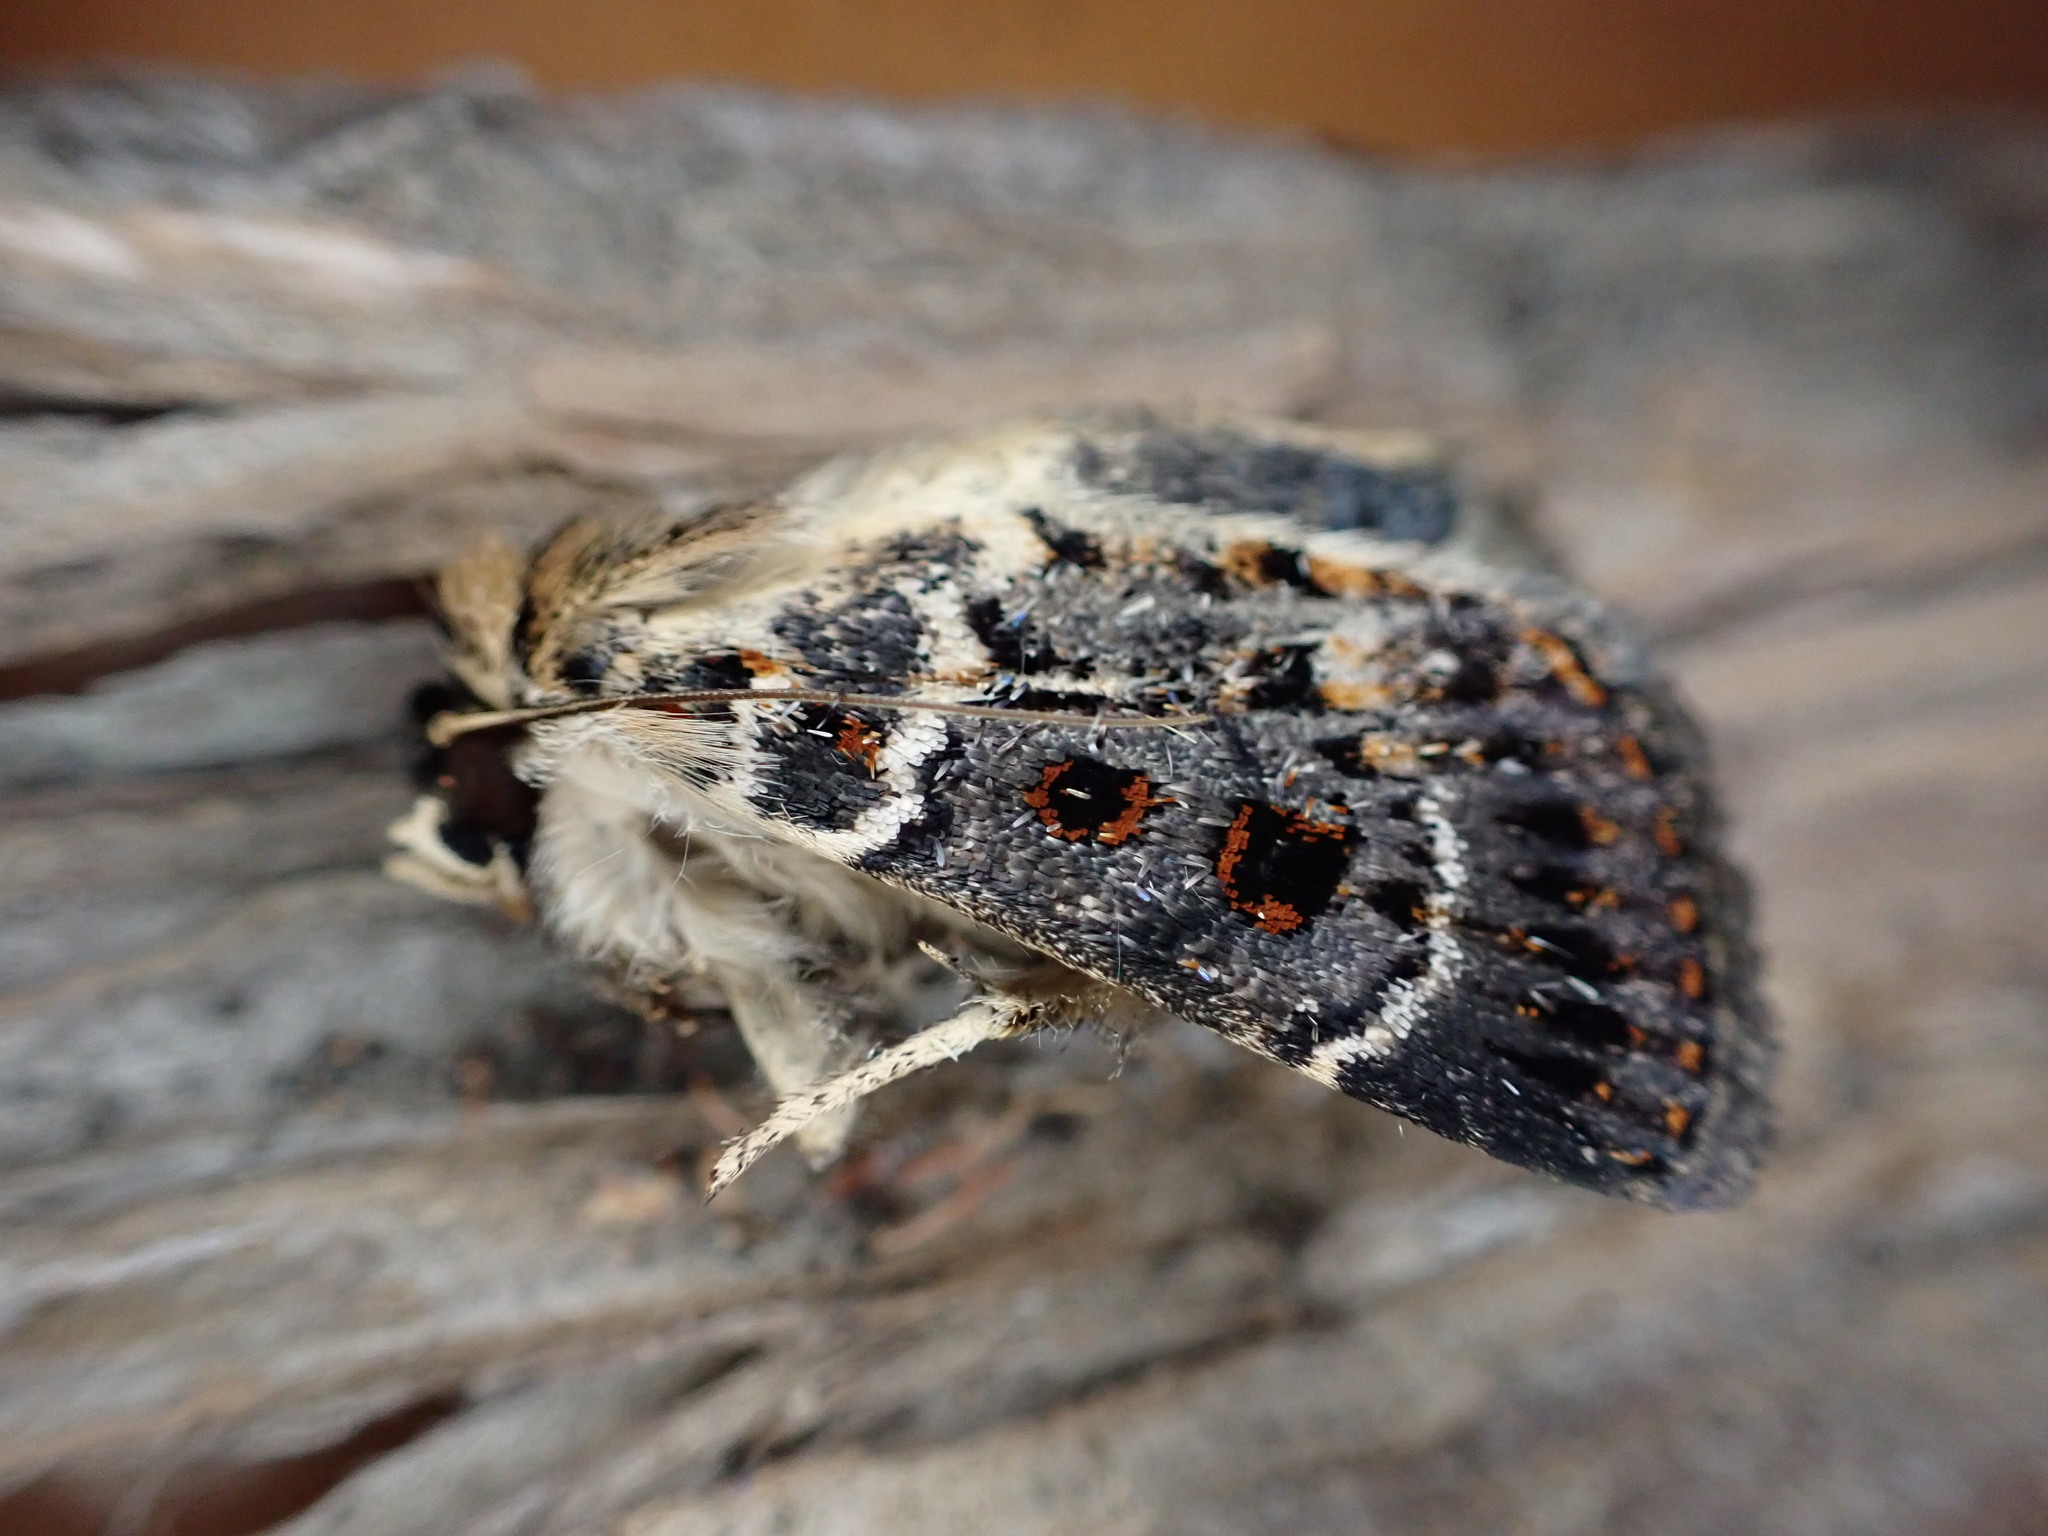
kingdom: Animalia
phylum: Arthropoda
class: Insecta
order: Lepidoptera
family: Noctuidae
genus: Proteuxoa
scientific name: Proteuxoa sanguinipuncta
